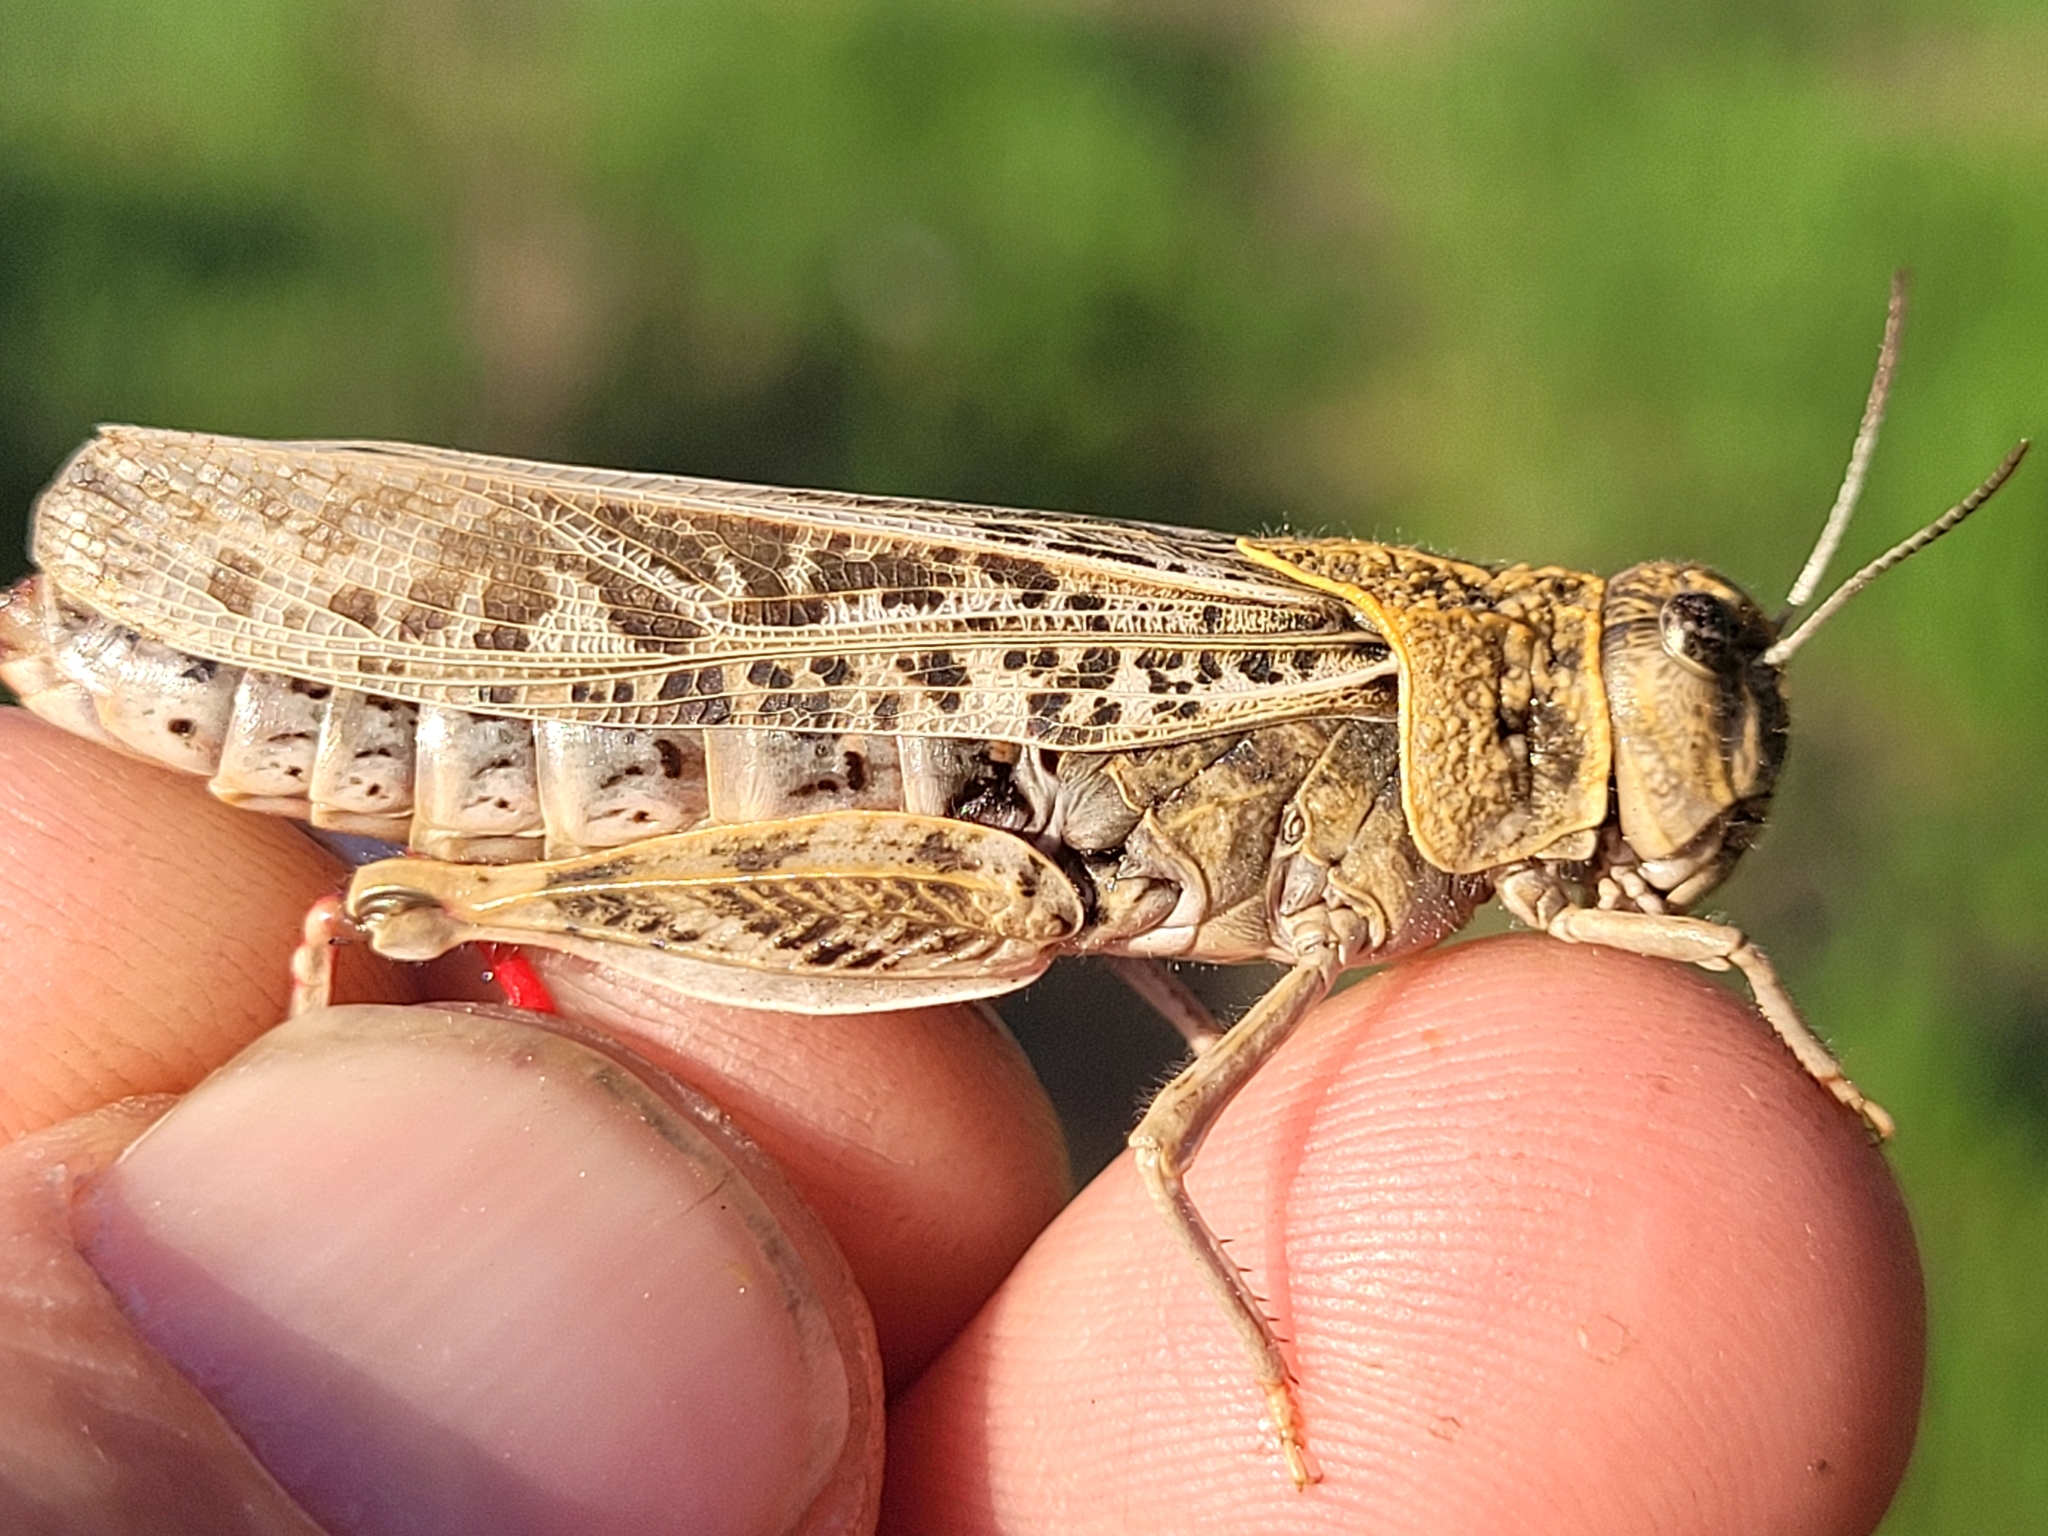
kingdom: Animalia
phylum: Arthropoda
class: Insecta
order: Orthoptera
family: Acrididae
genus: Xanthippus
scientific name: Xanthippus corallipes
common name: Redshanked grasshopper
